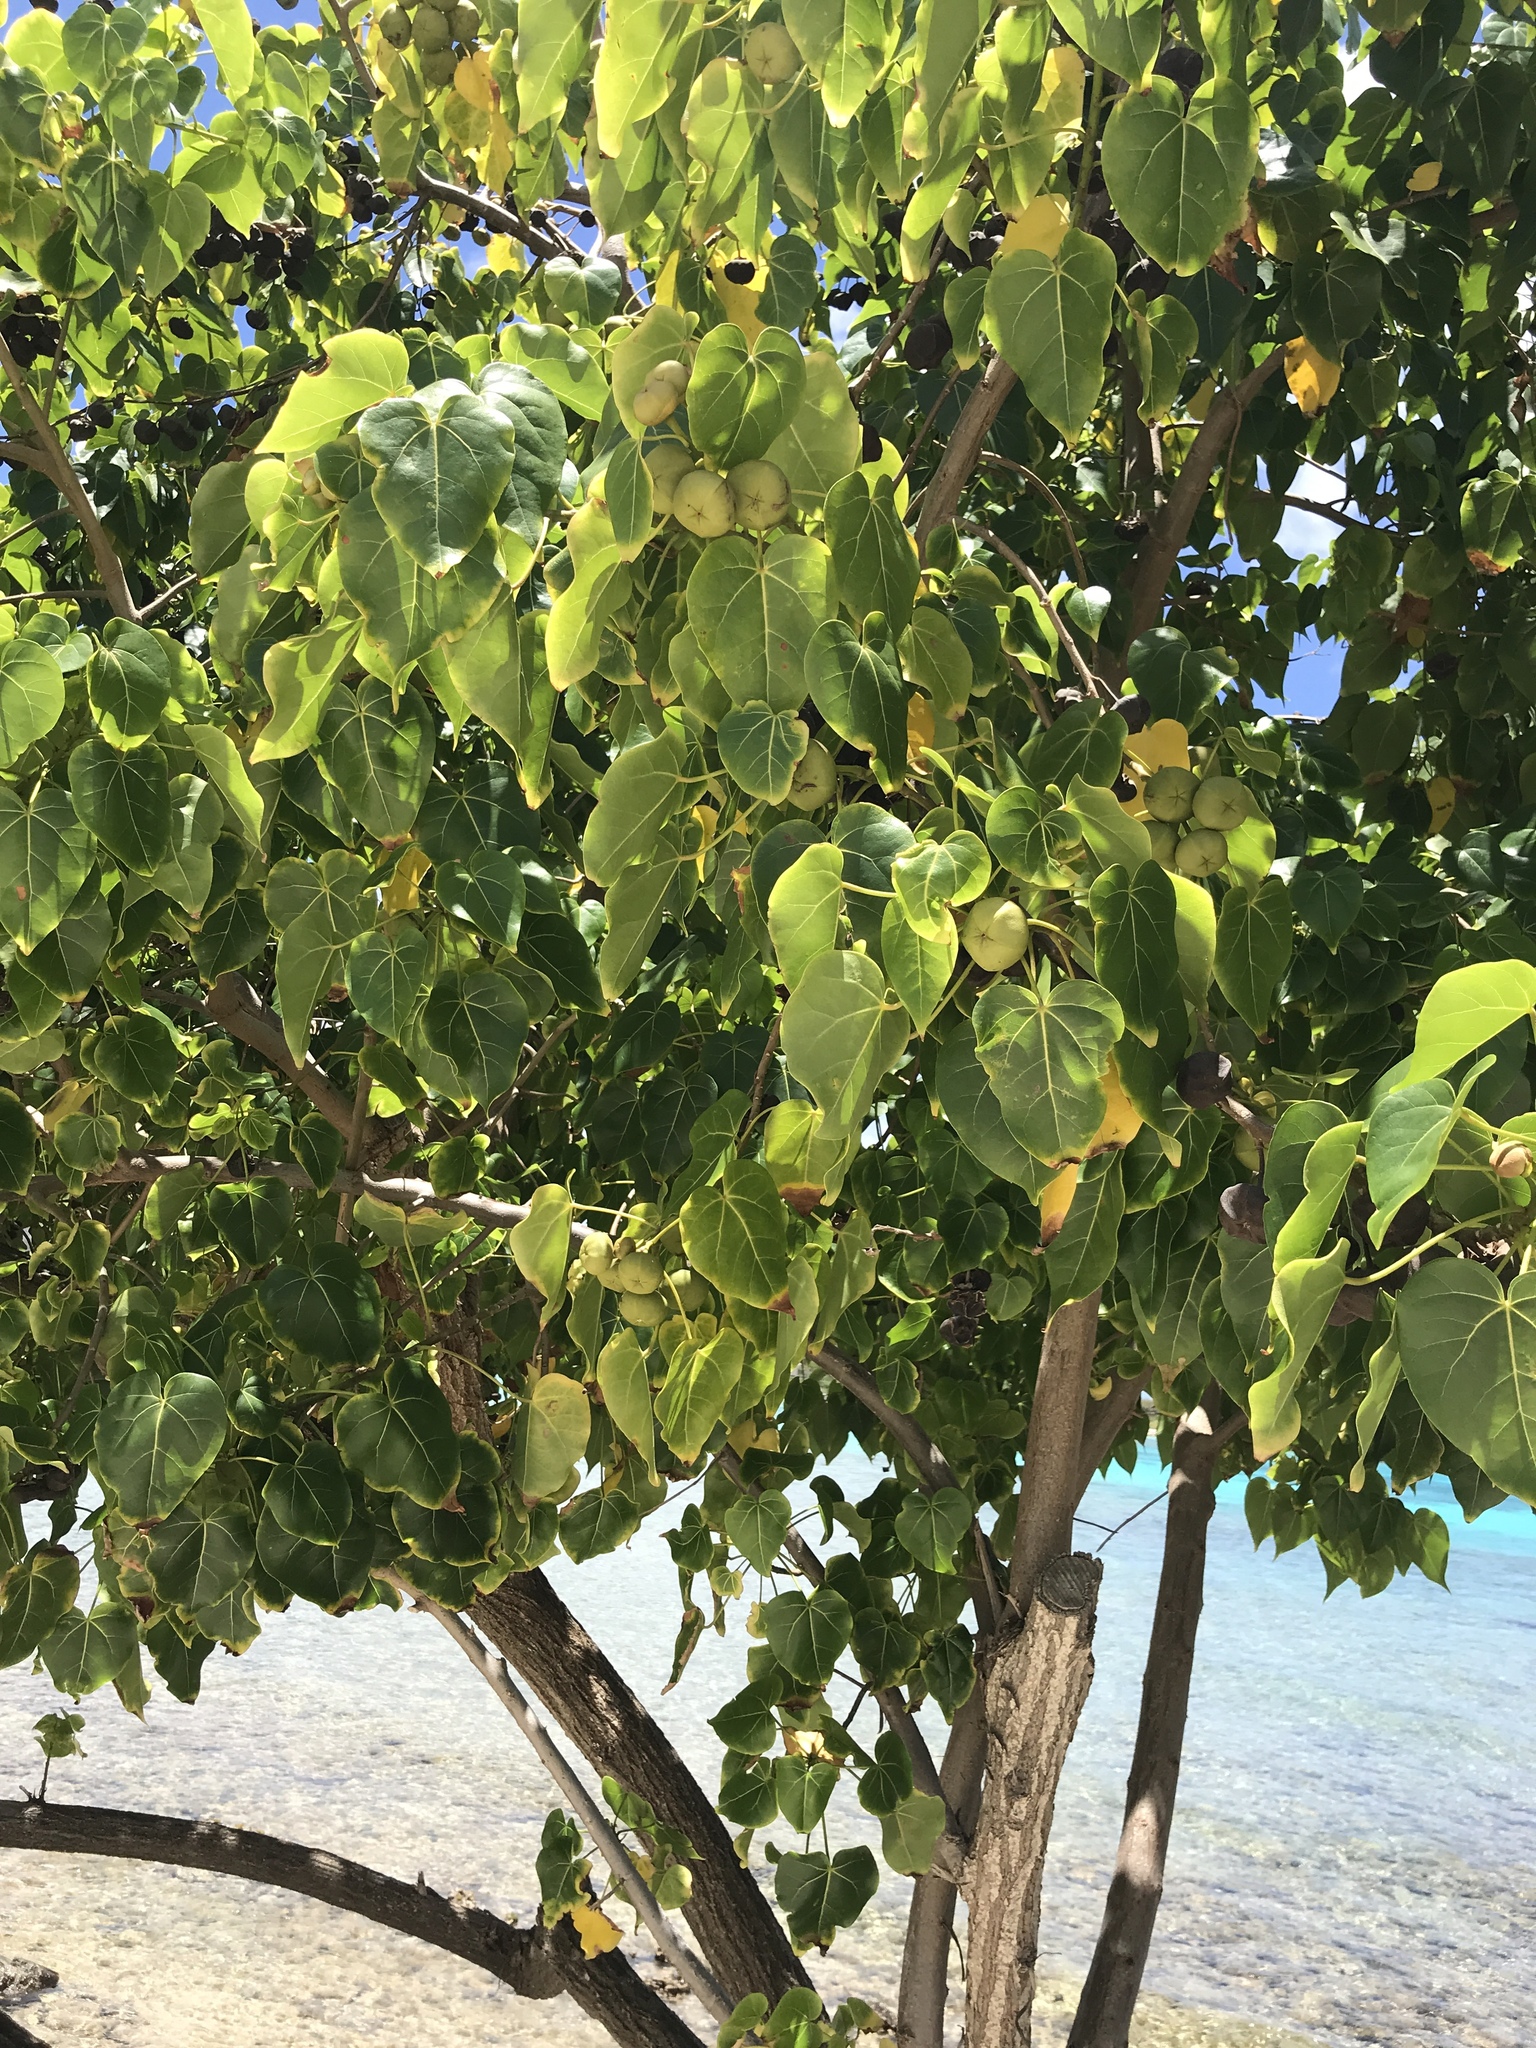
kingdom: Plantae
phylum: Tracheophyta
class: Magnoliopsida
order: Malvales
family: Malvaceae
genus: Thespesia
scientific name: Thespesia populnea
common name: Seaside mahoe
